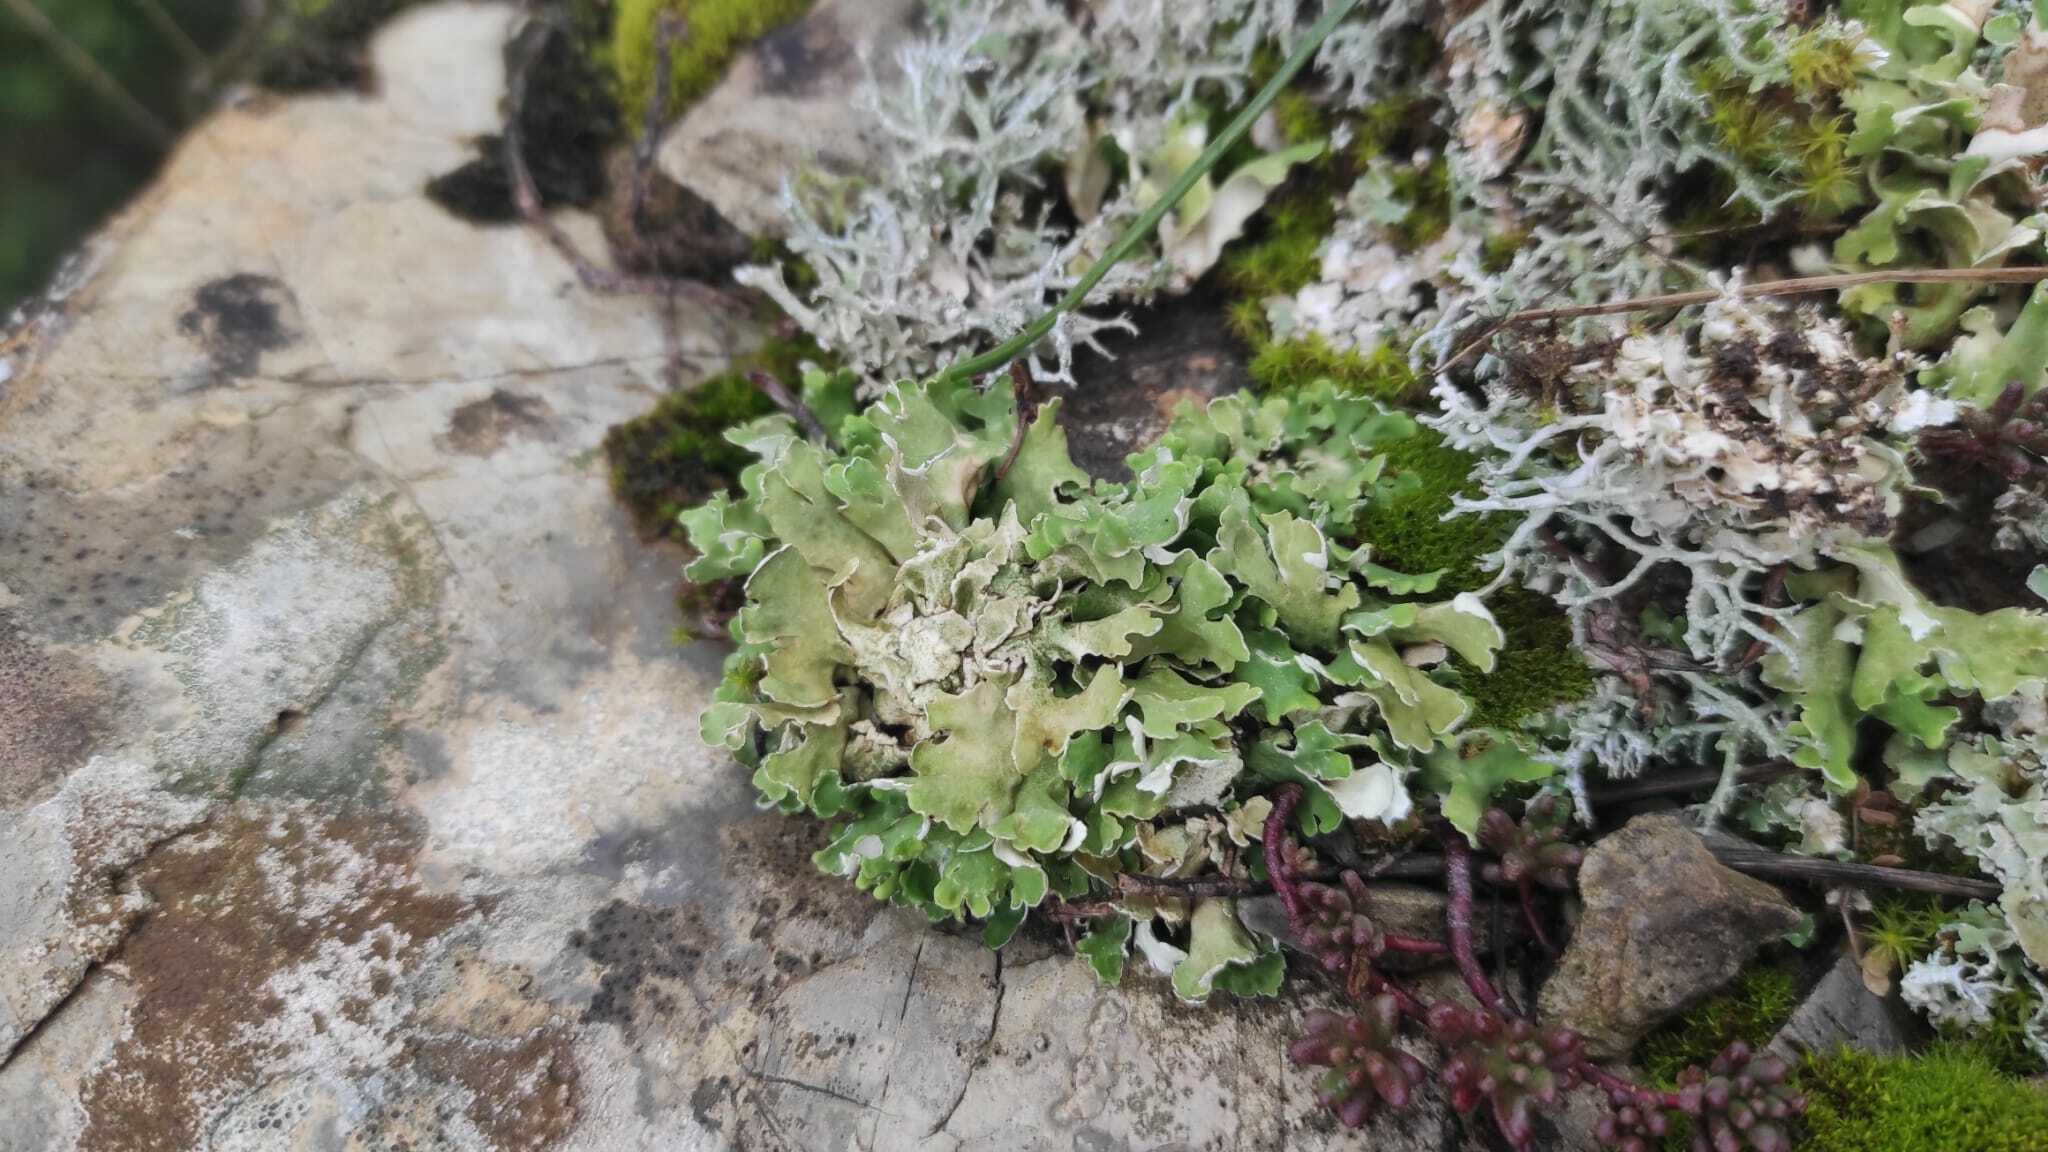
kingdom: Fungi
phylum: Ascomycota
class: Lecanoromycetes
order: Lecanorales
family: Cladoniaceae
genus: Cladonia
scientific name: Cladonia foliacea
